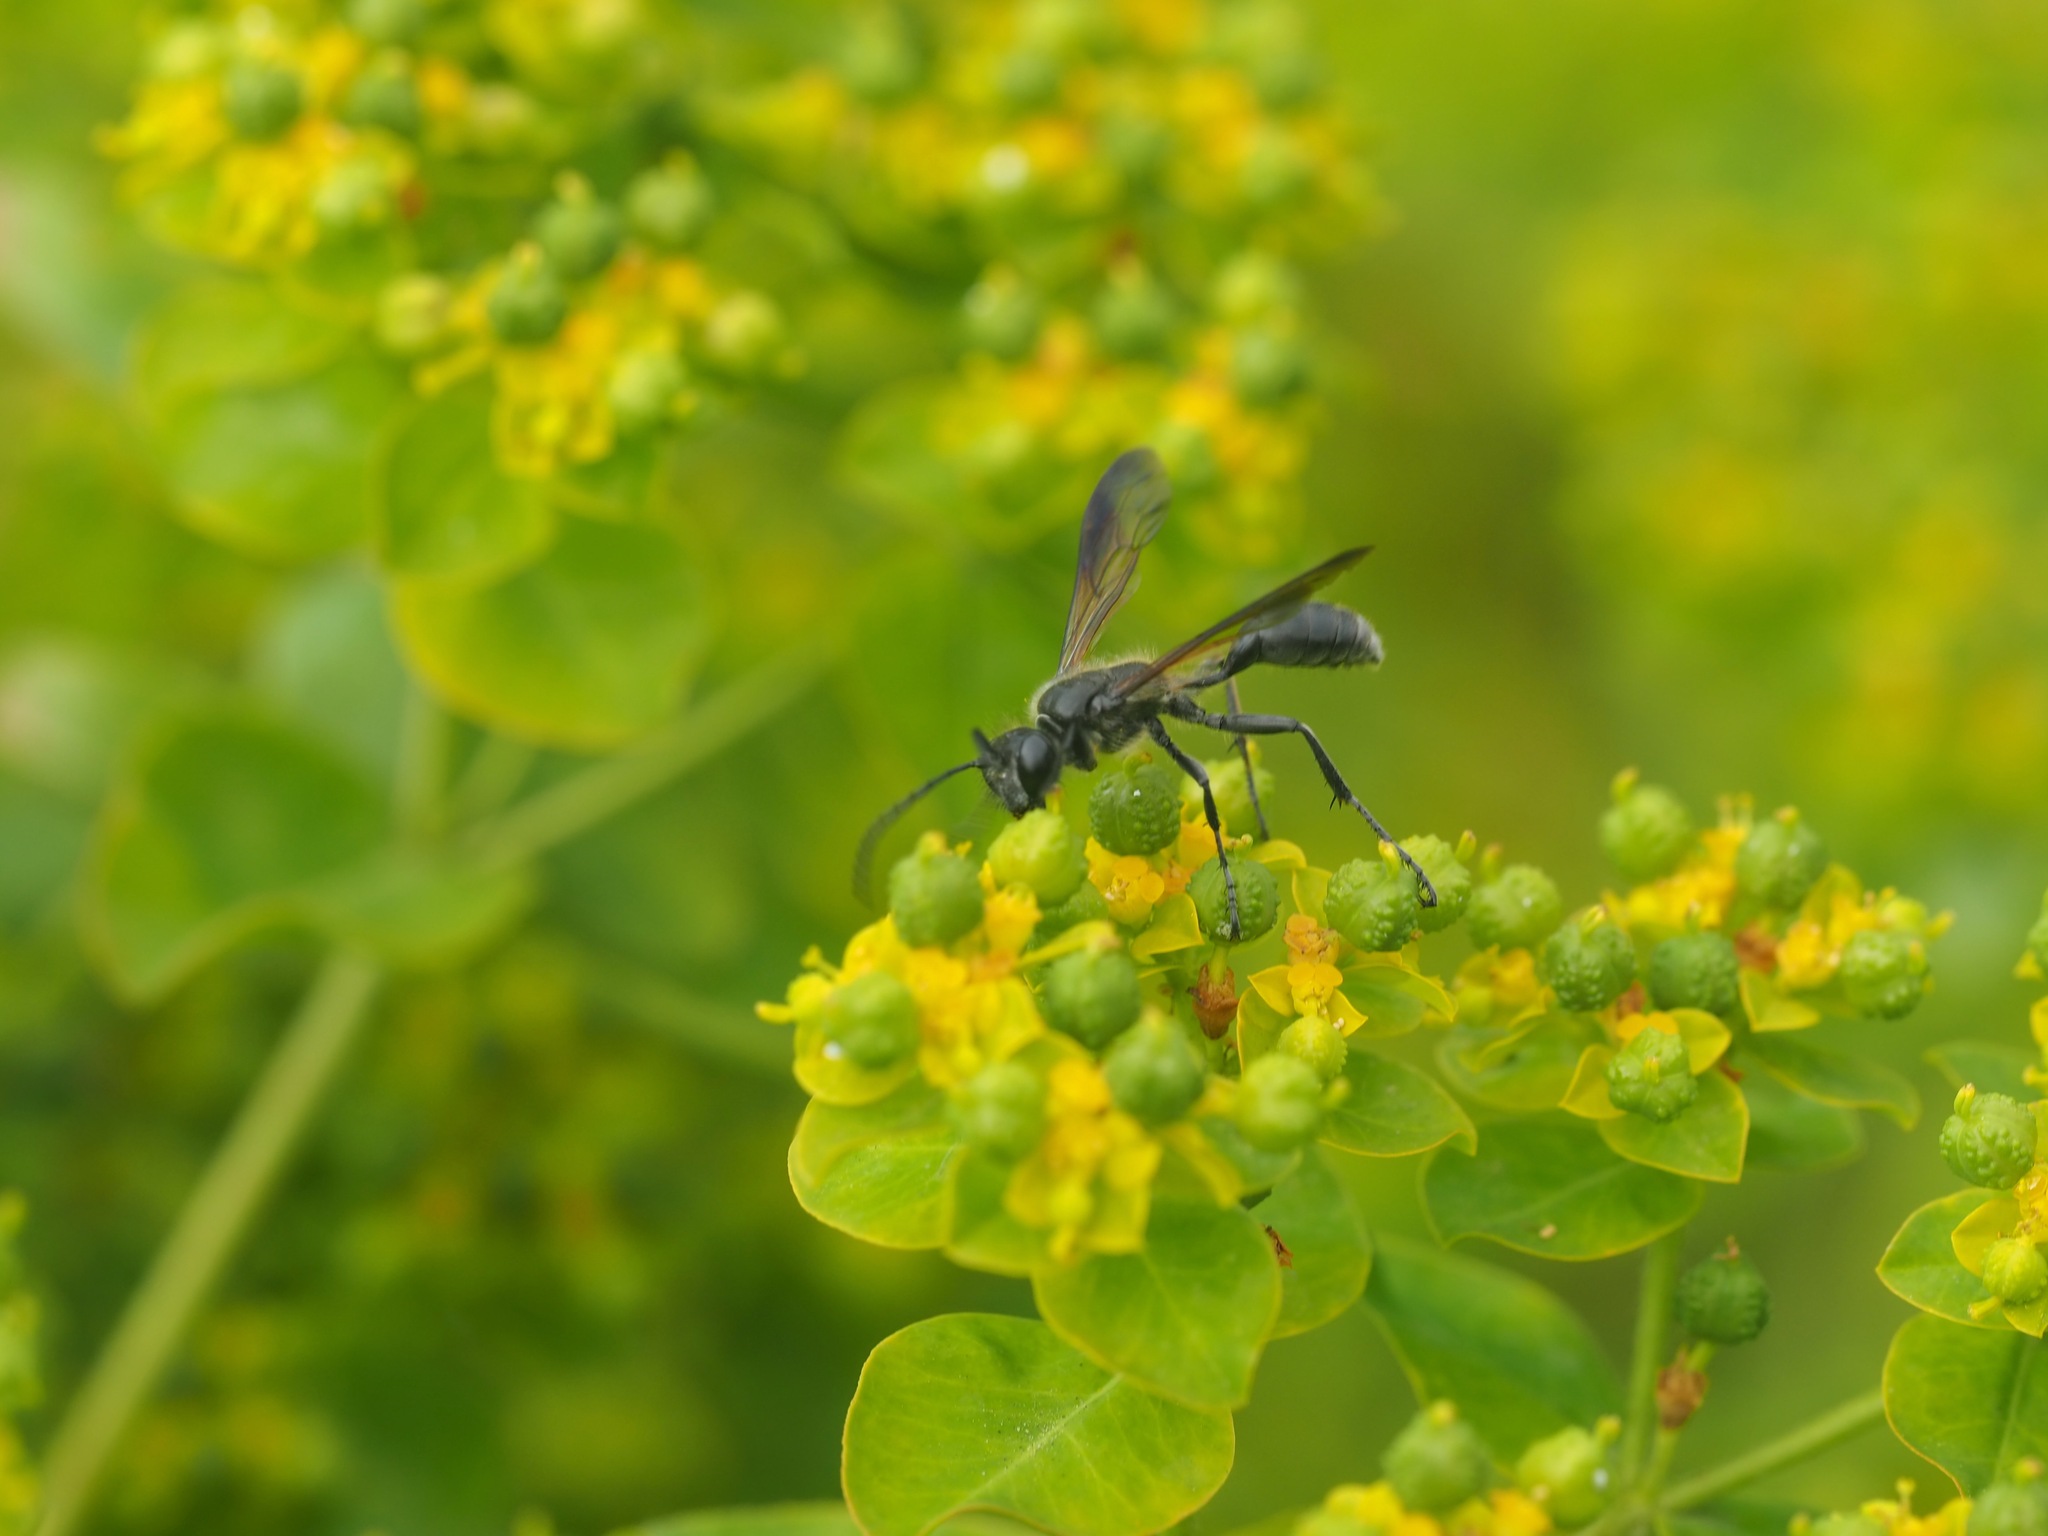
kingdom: Animalia
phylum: Arthropoda
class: Insecta
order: Hymenoptera
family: Sphecidae
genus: Isodontia
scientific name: Isodontia mexicana
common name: Mud dauber
